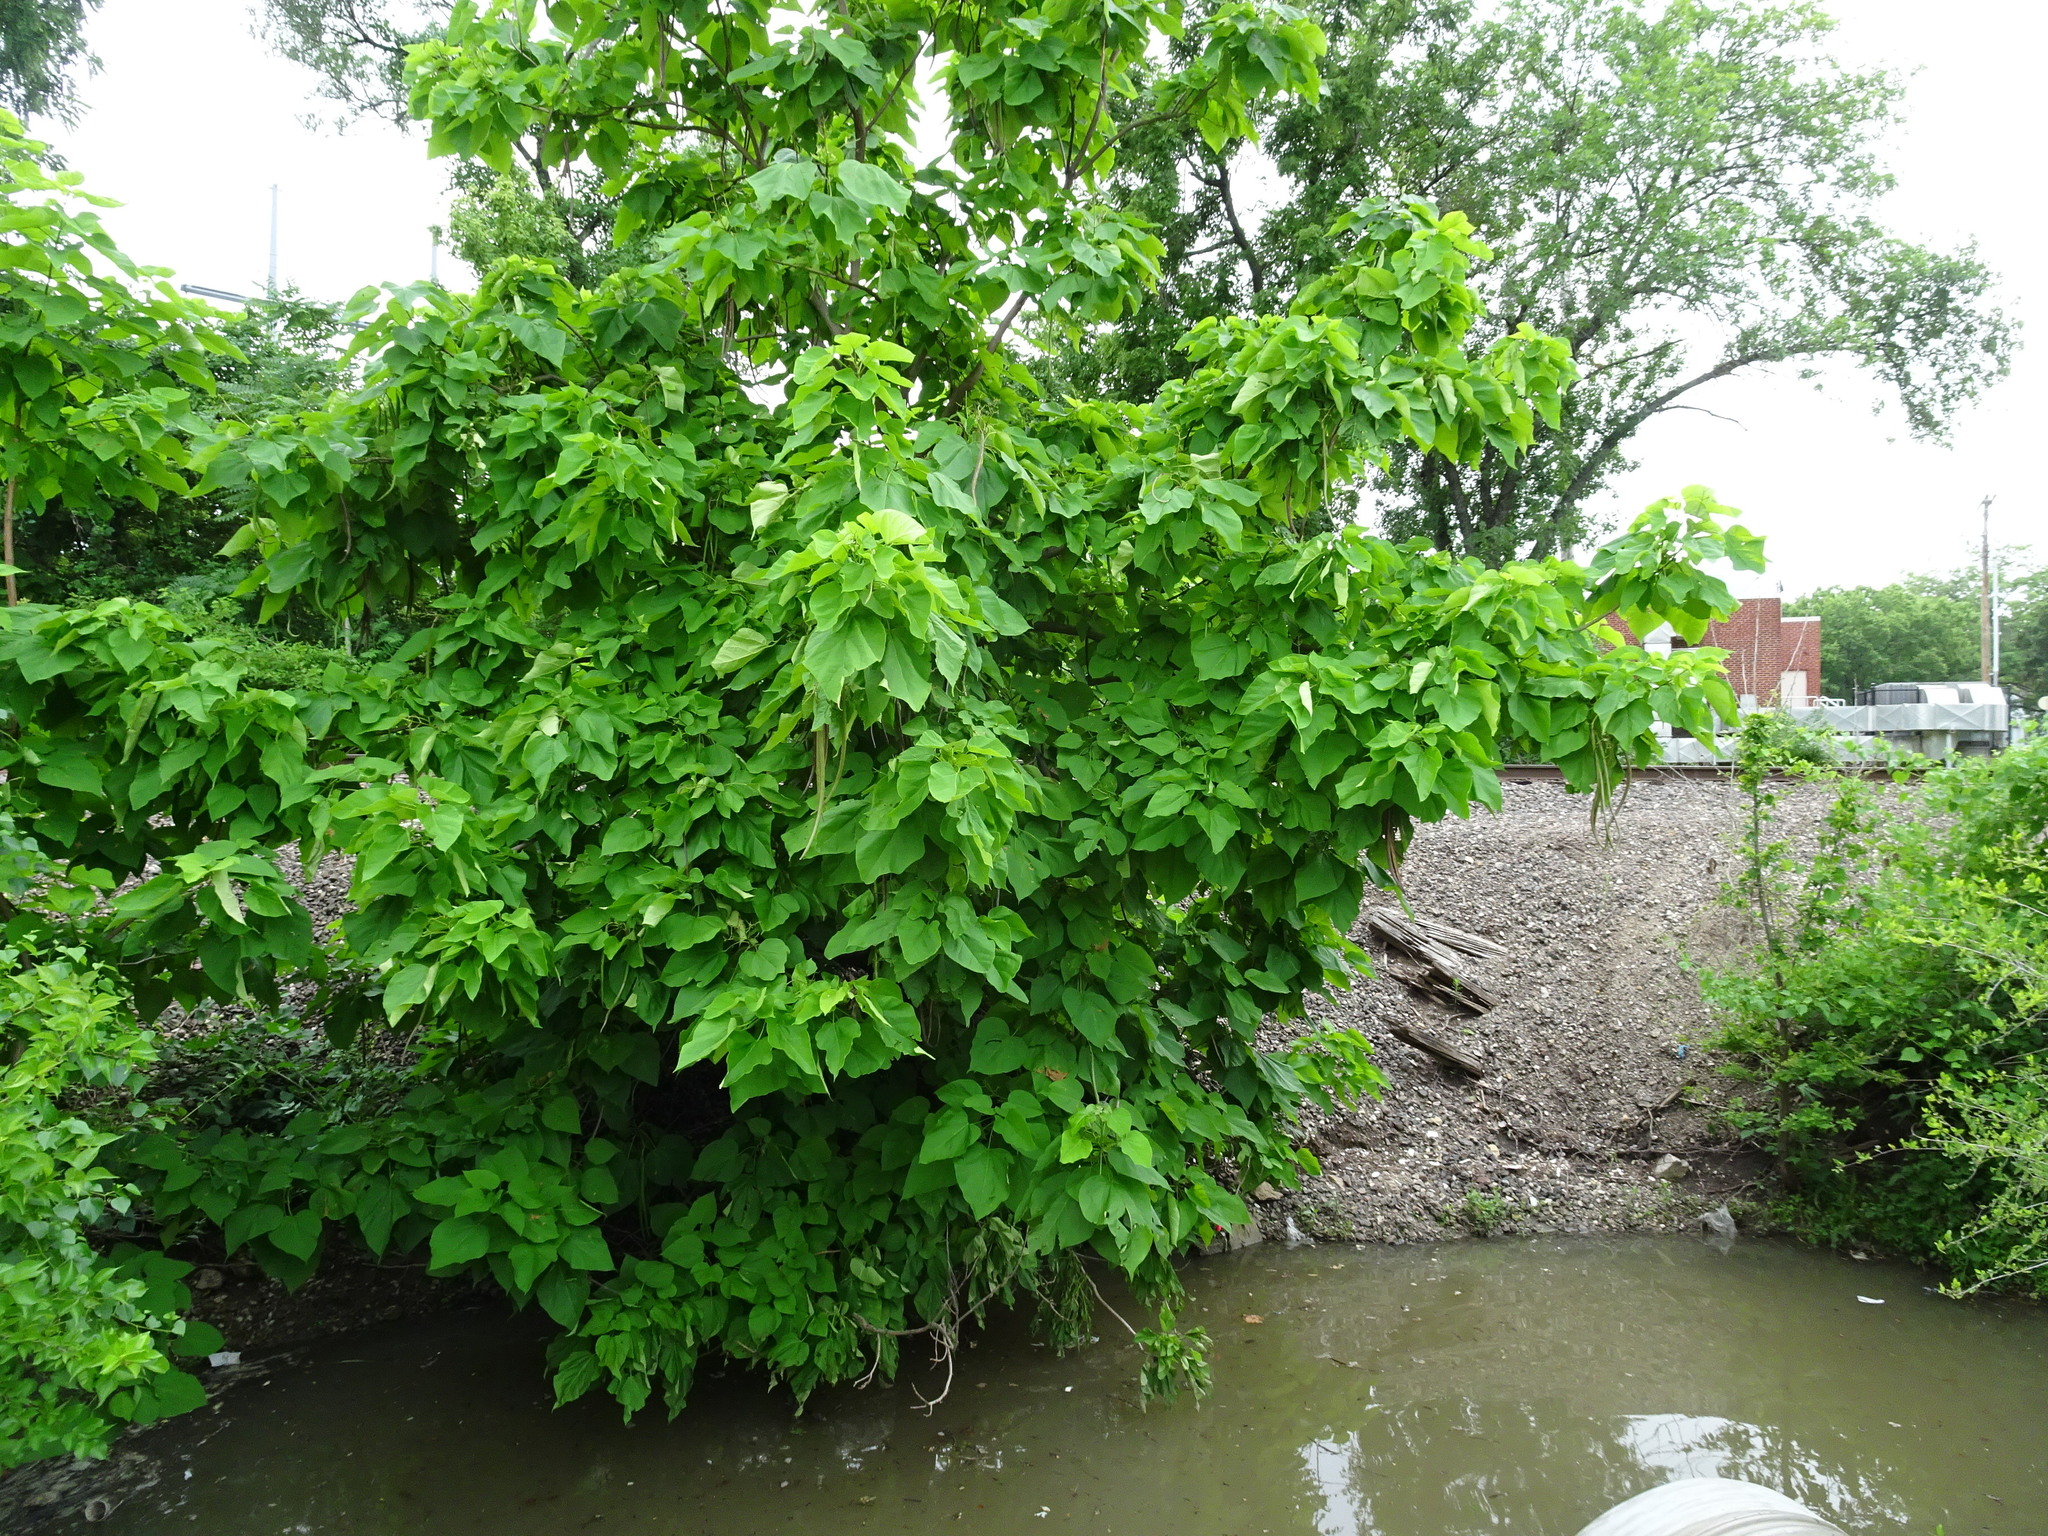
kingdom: Plantae
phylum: Tracheophyta
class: Magnoliopsida
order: Lamiales
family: Bignoniaceae
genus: Catalpa
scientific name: Catalpa speciosa
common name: Northern catalpa
